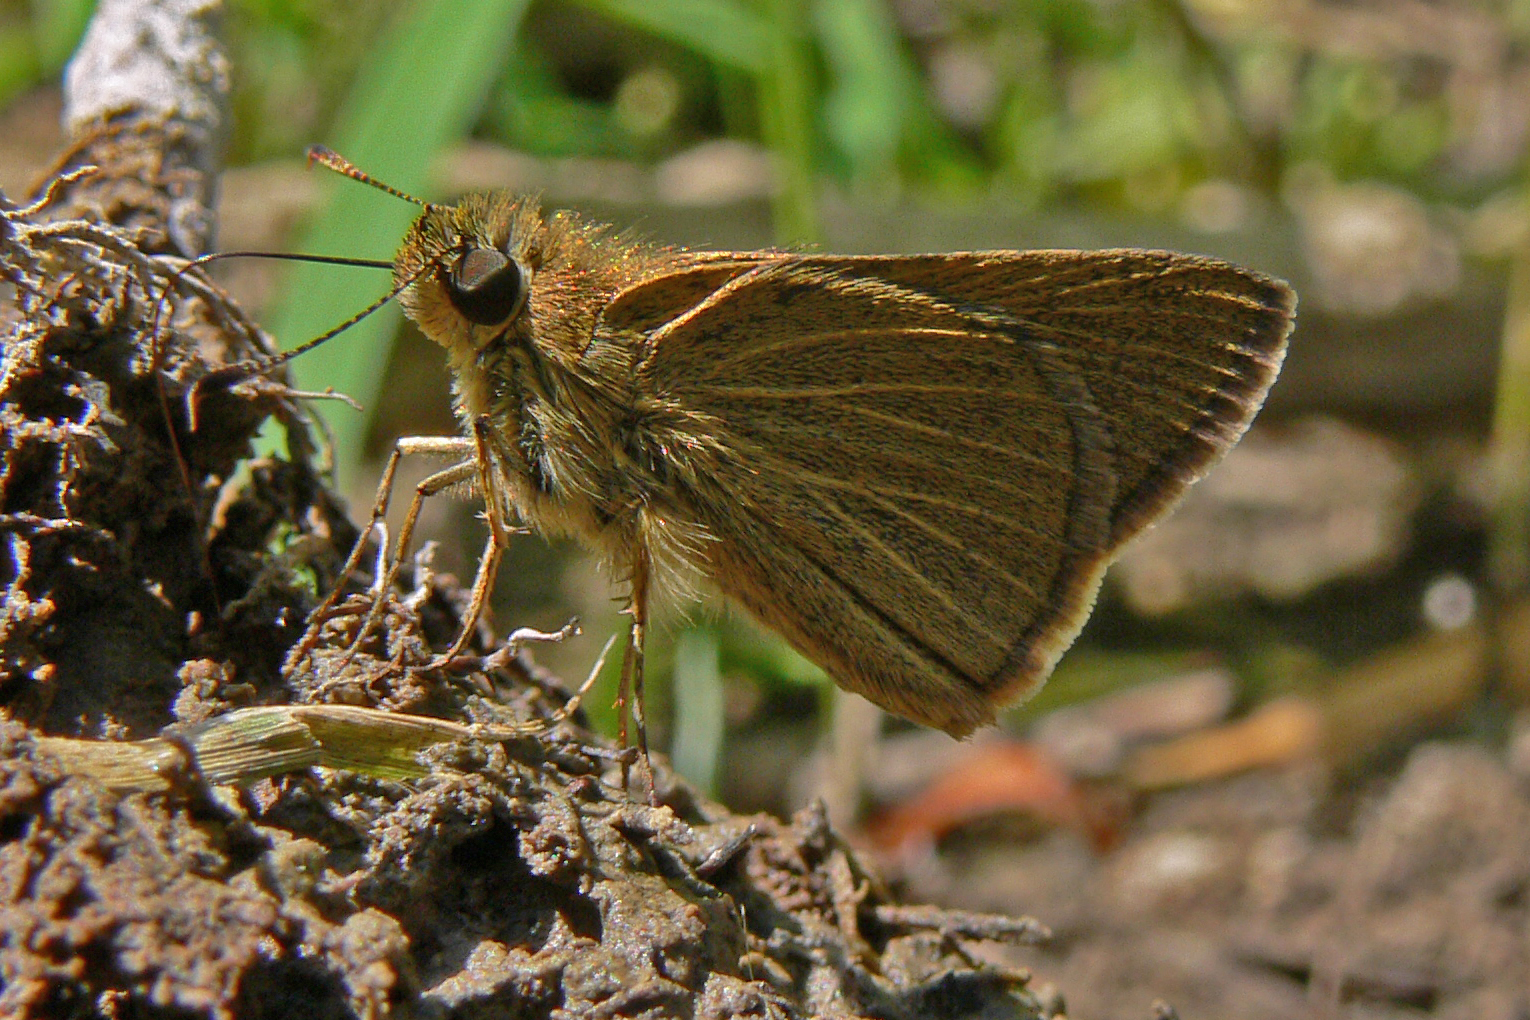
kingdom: Animalia
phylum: Arthropoda
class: Insecta
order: Lepidoptera
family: Hesperiidae
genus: Nastra
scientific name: Nastra lherminier
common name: Swarthy skipper
